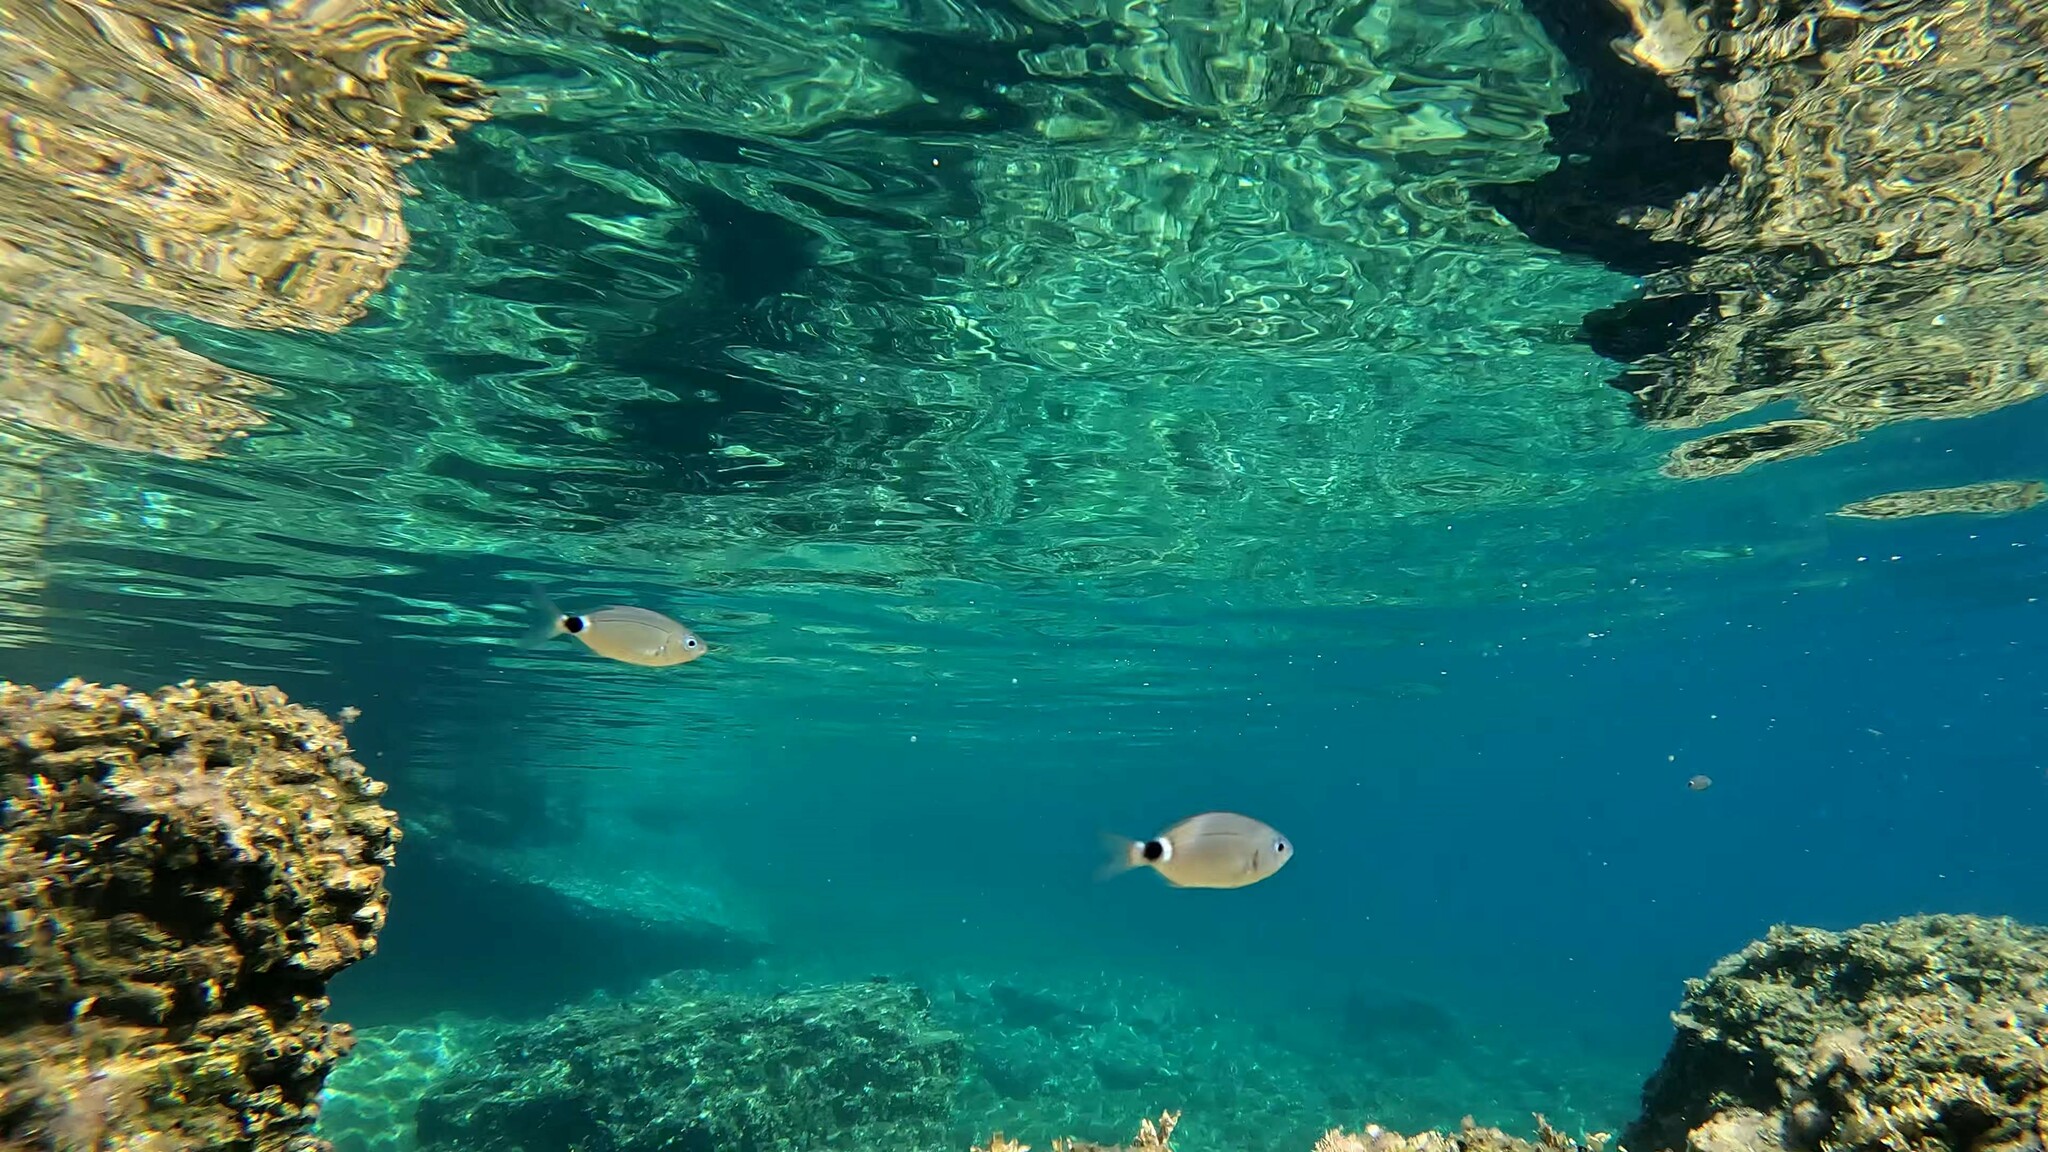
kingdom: Animalia
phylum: Chordata
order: Perciformes
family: Sparidae
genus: Oblada
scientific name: Oblada melanura
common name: Saddled seabream
